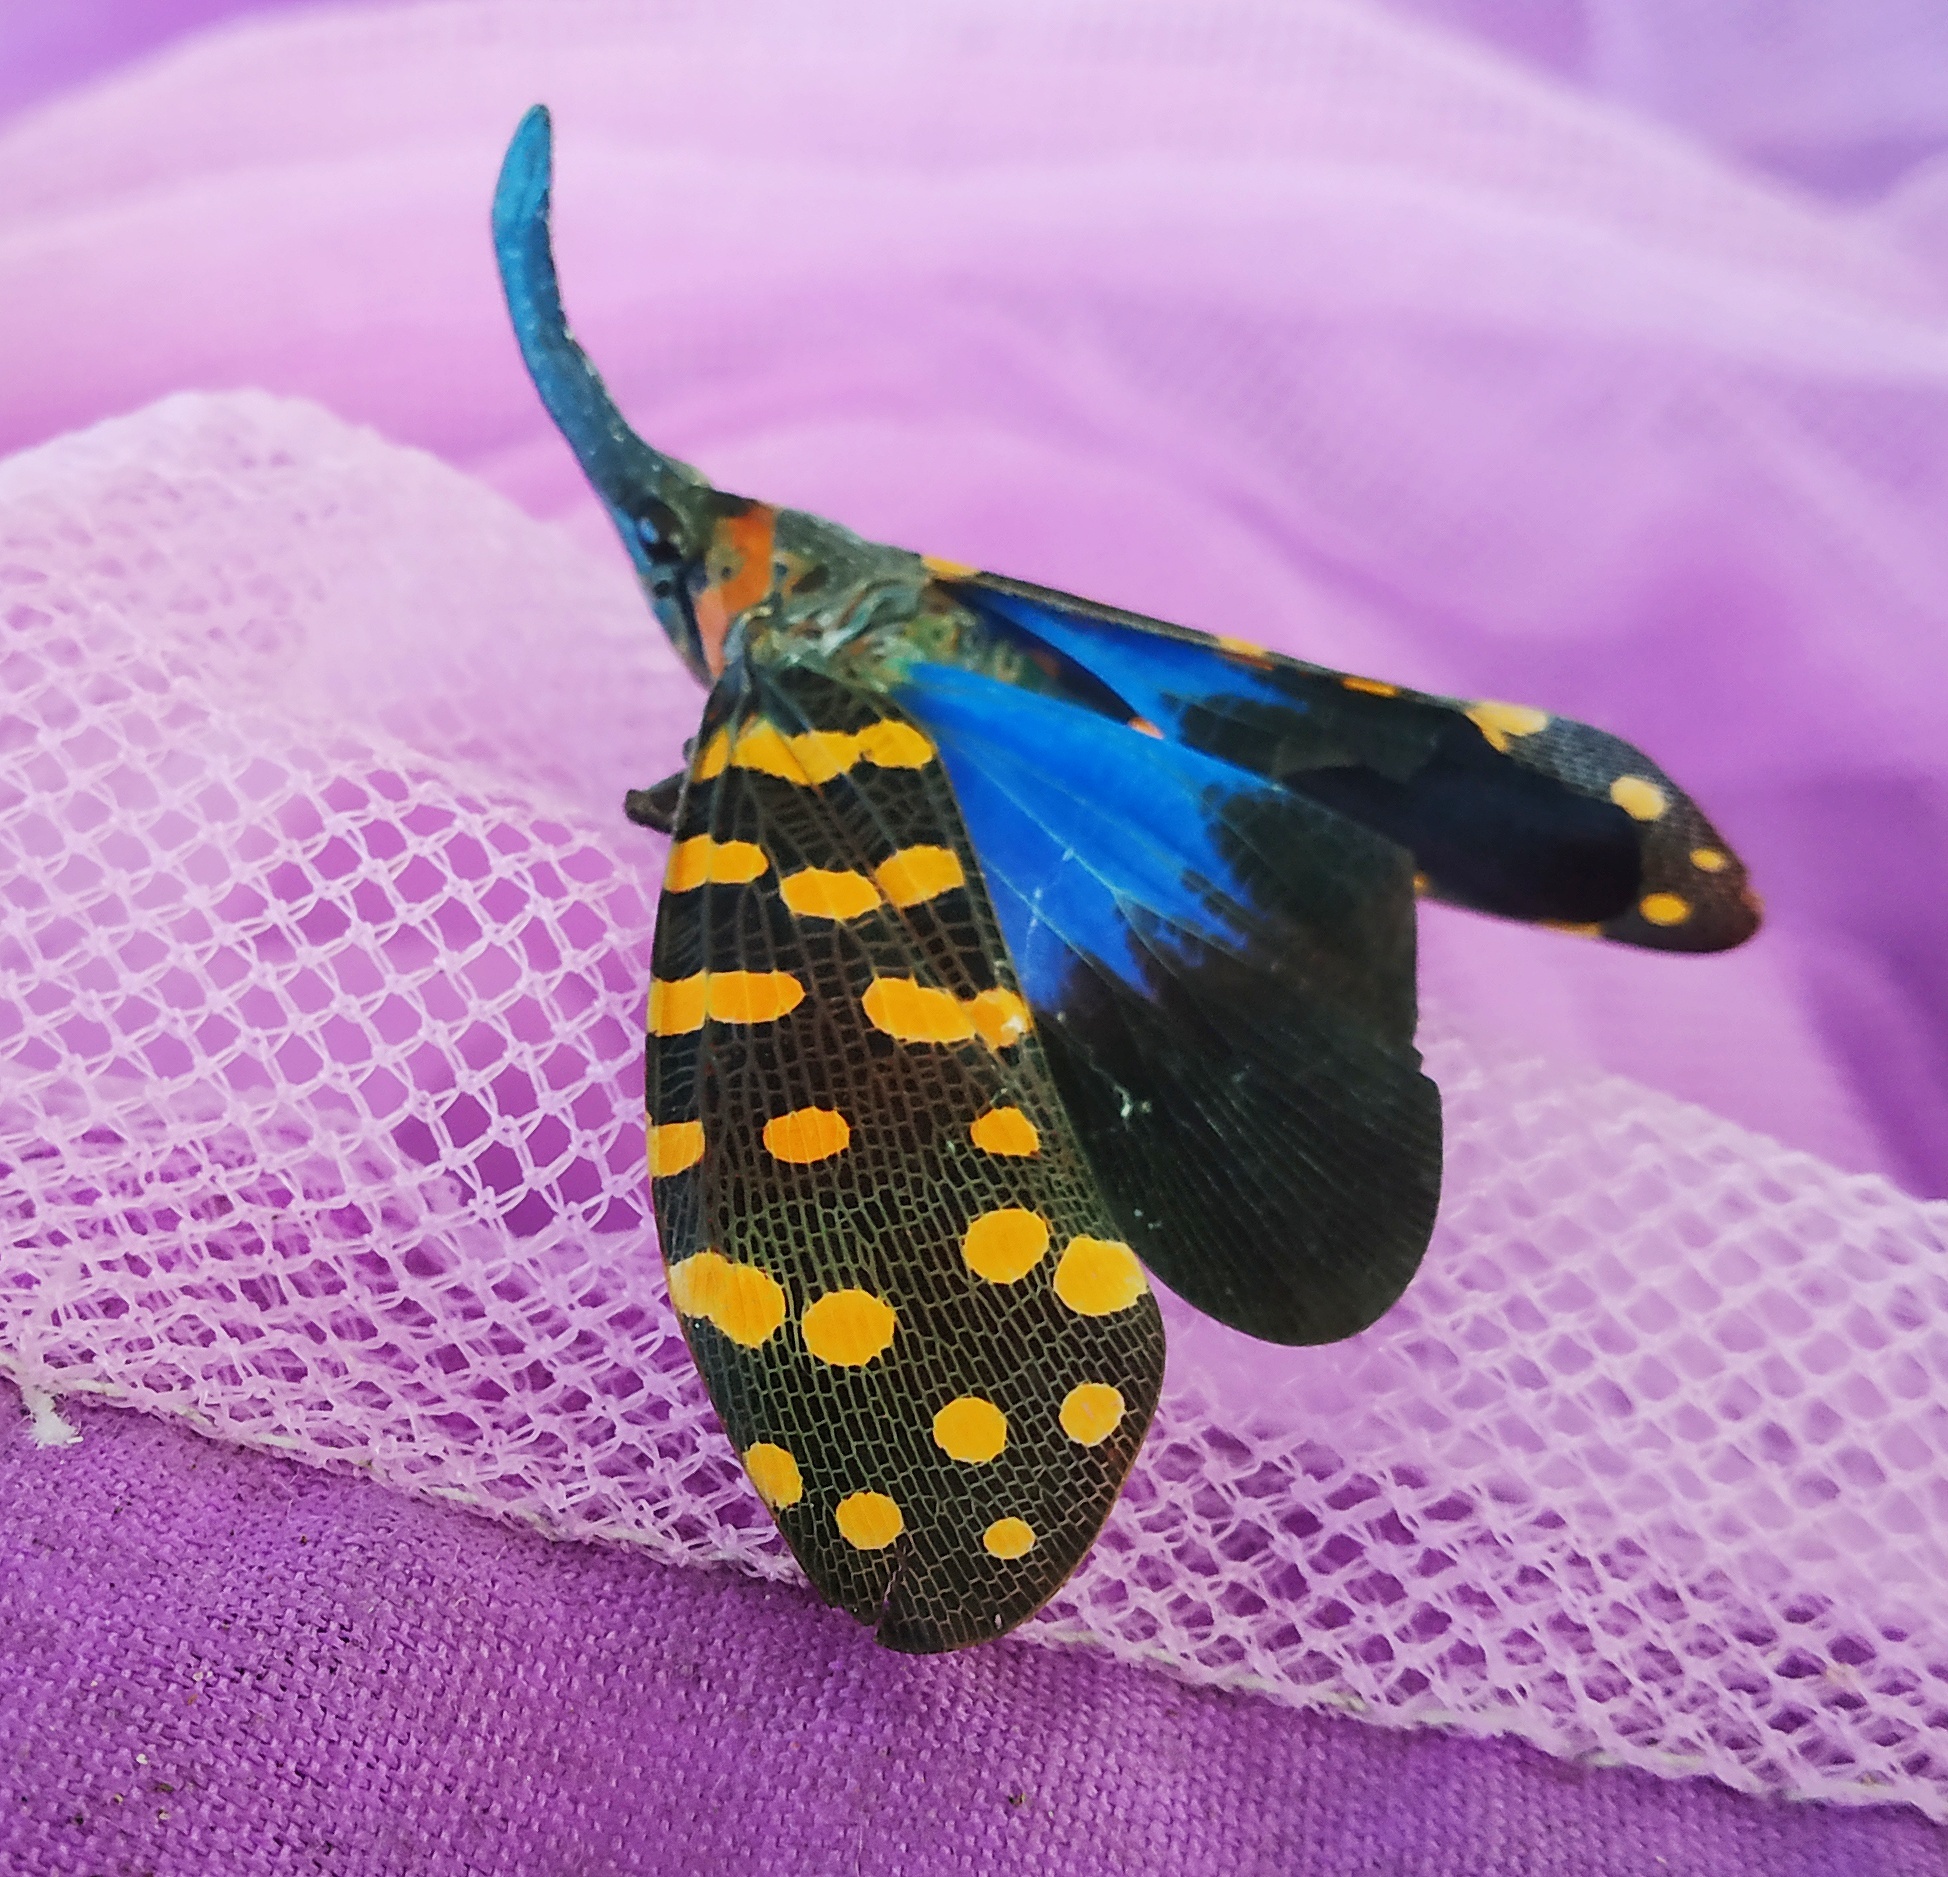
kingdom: Animalia
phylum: Arthropoda
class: Insecta
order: Hemiptera
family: Fulgoridae
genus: Pyrops
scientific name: Pyrops
